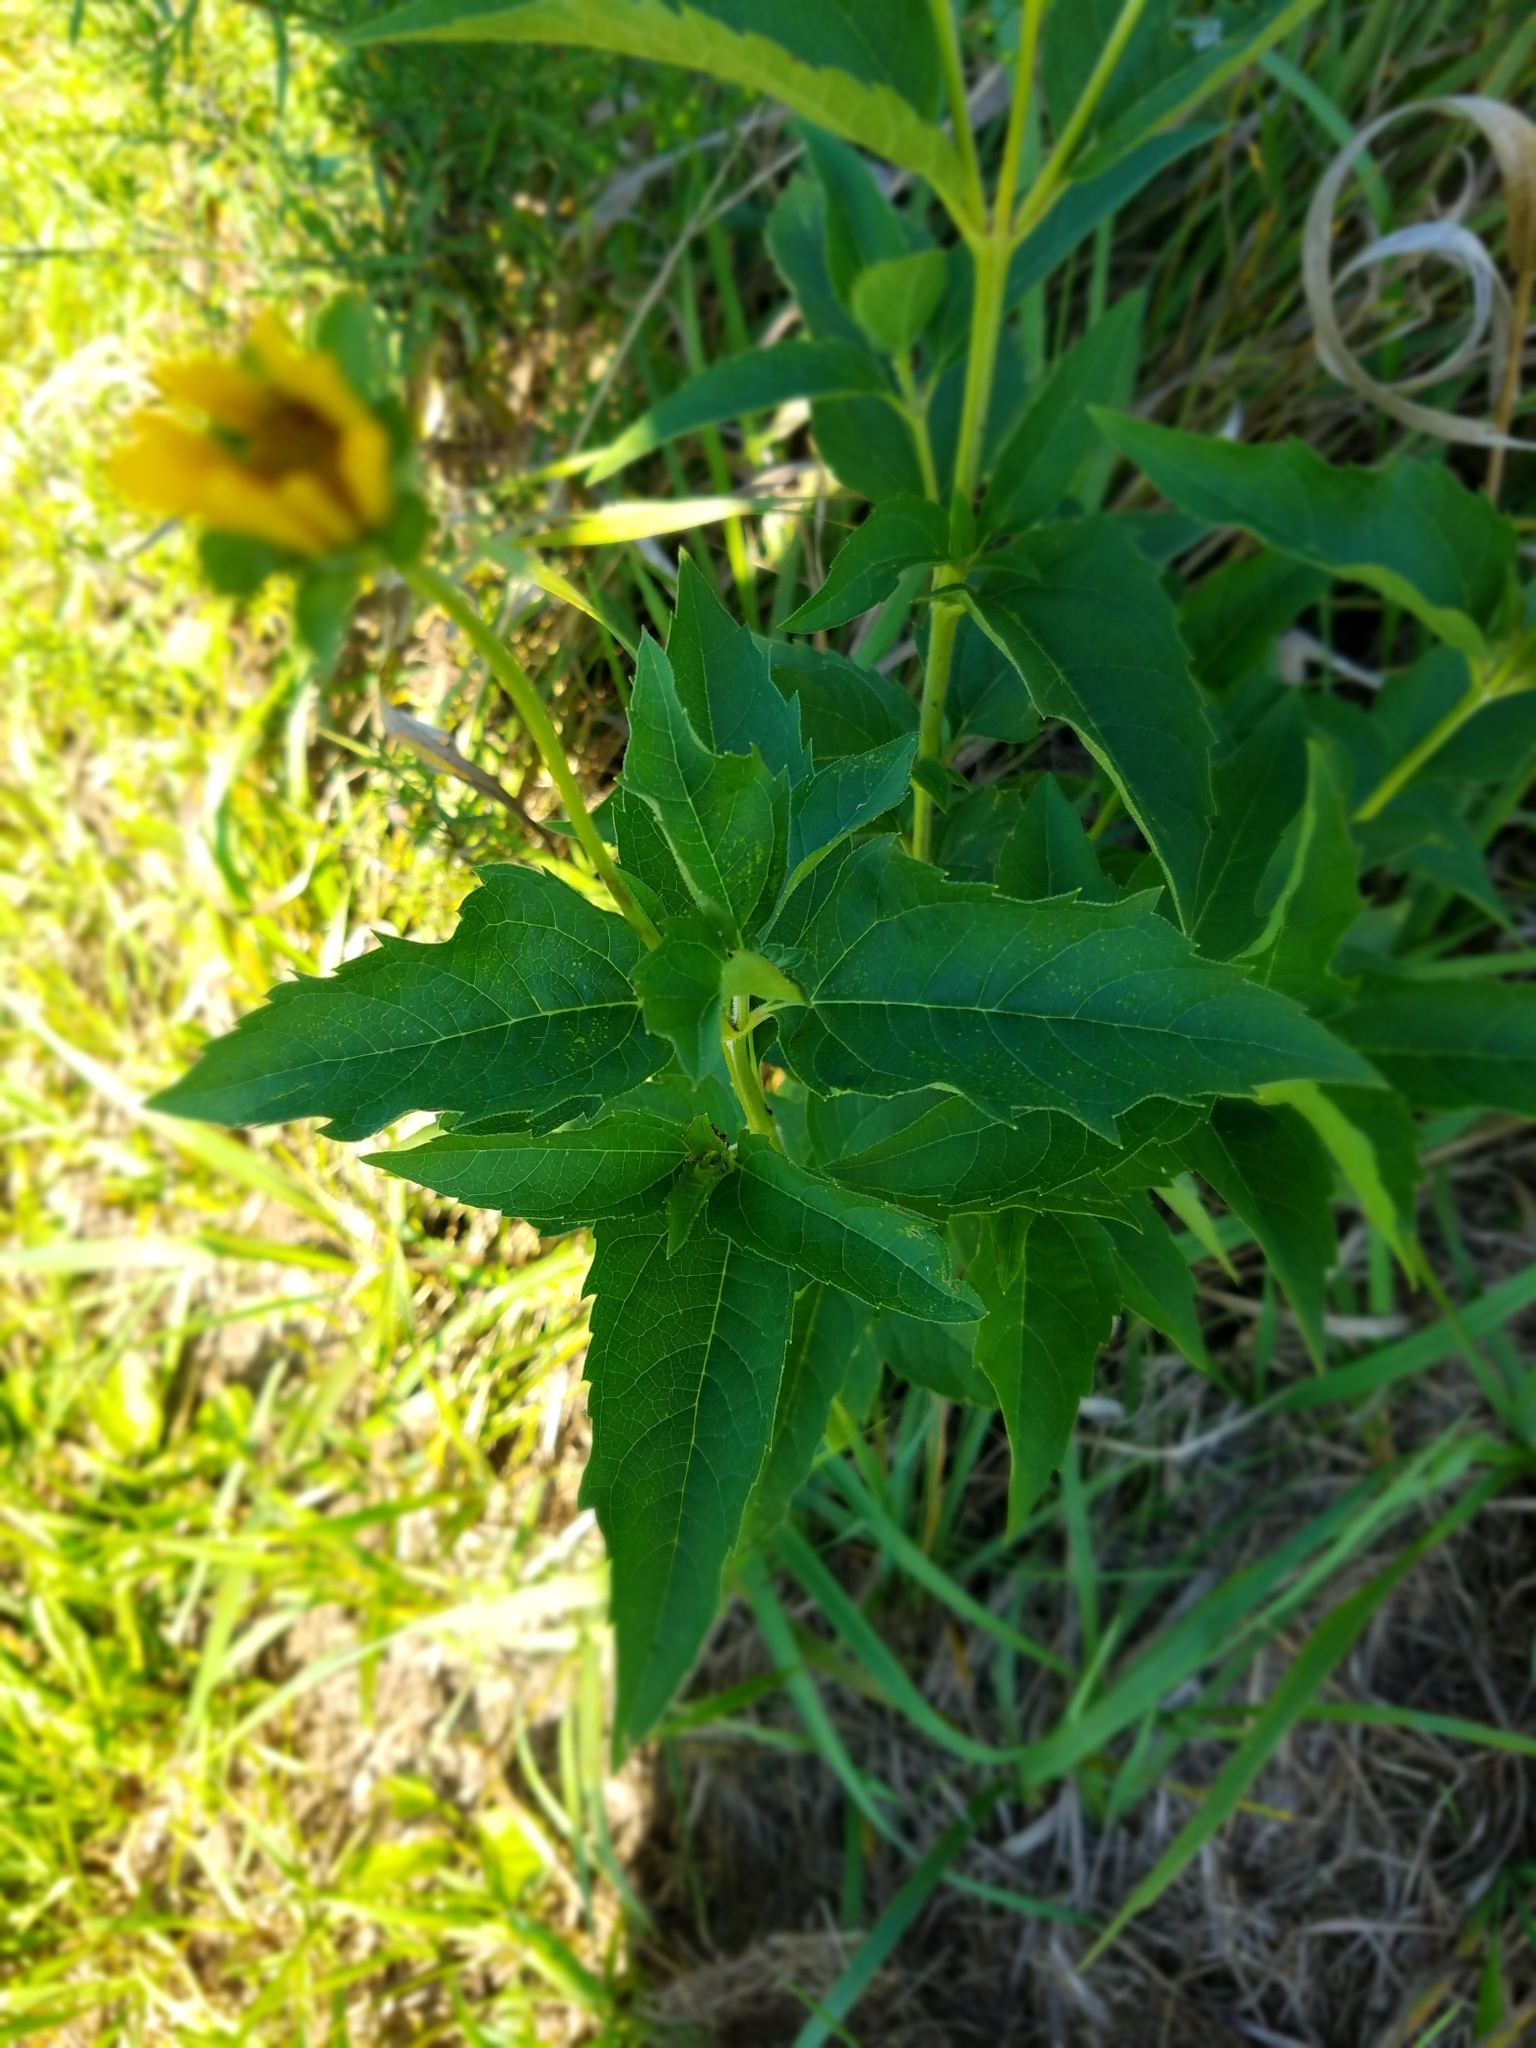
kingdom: Plantae
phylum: Tracheophyta
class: Magnoliopsida
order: Asterales
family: Asteraceae
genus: Heliopsis
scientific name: Heliopsis helianthoides
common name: False sunflower
